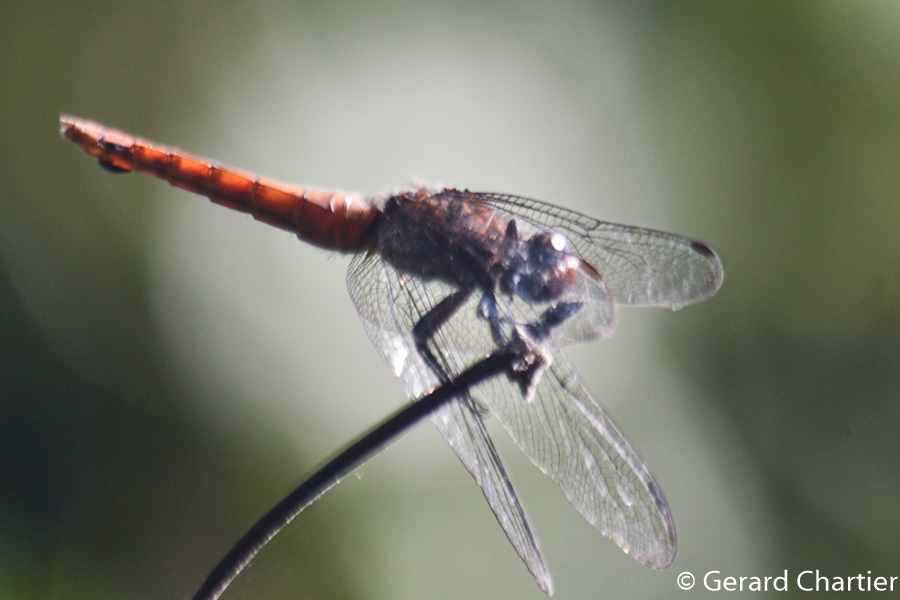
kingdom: Animalia
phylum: Arthropoda
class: Insecta
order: Odonata
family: Libellulidae
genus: Orthetrum
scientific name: Orthetrum chrysis
